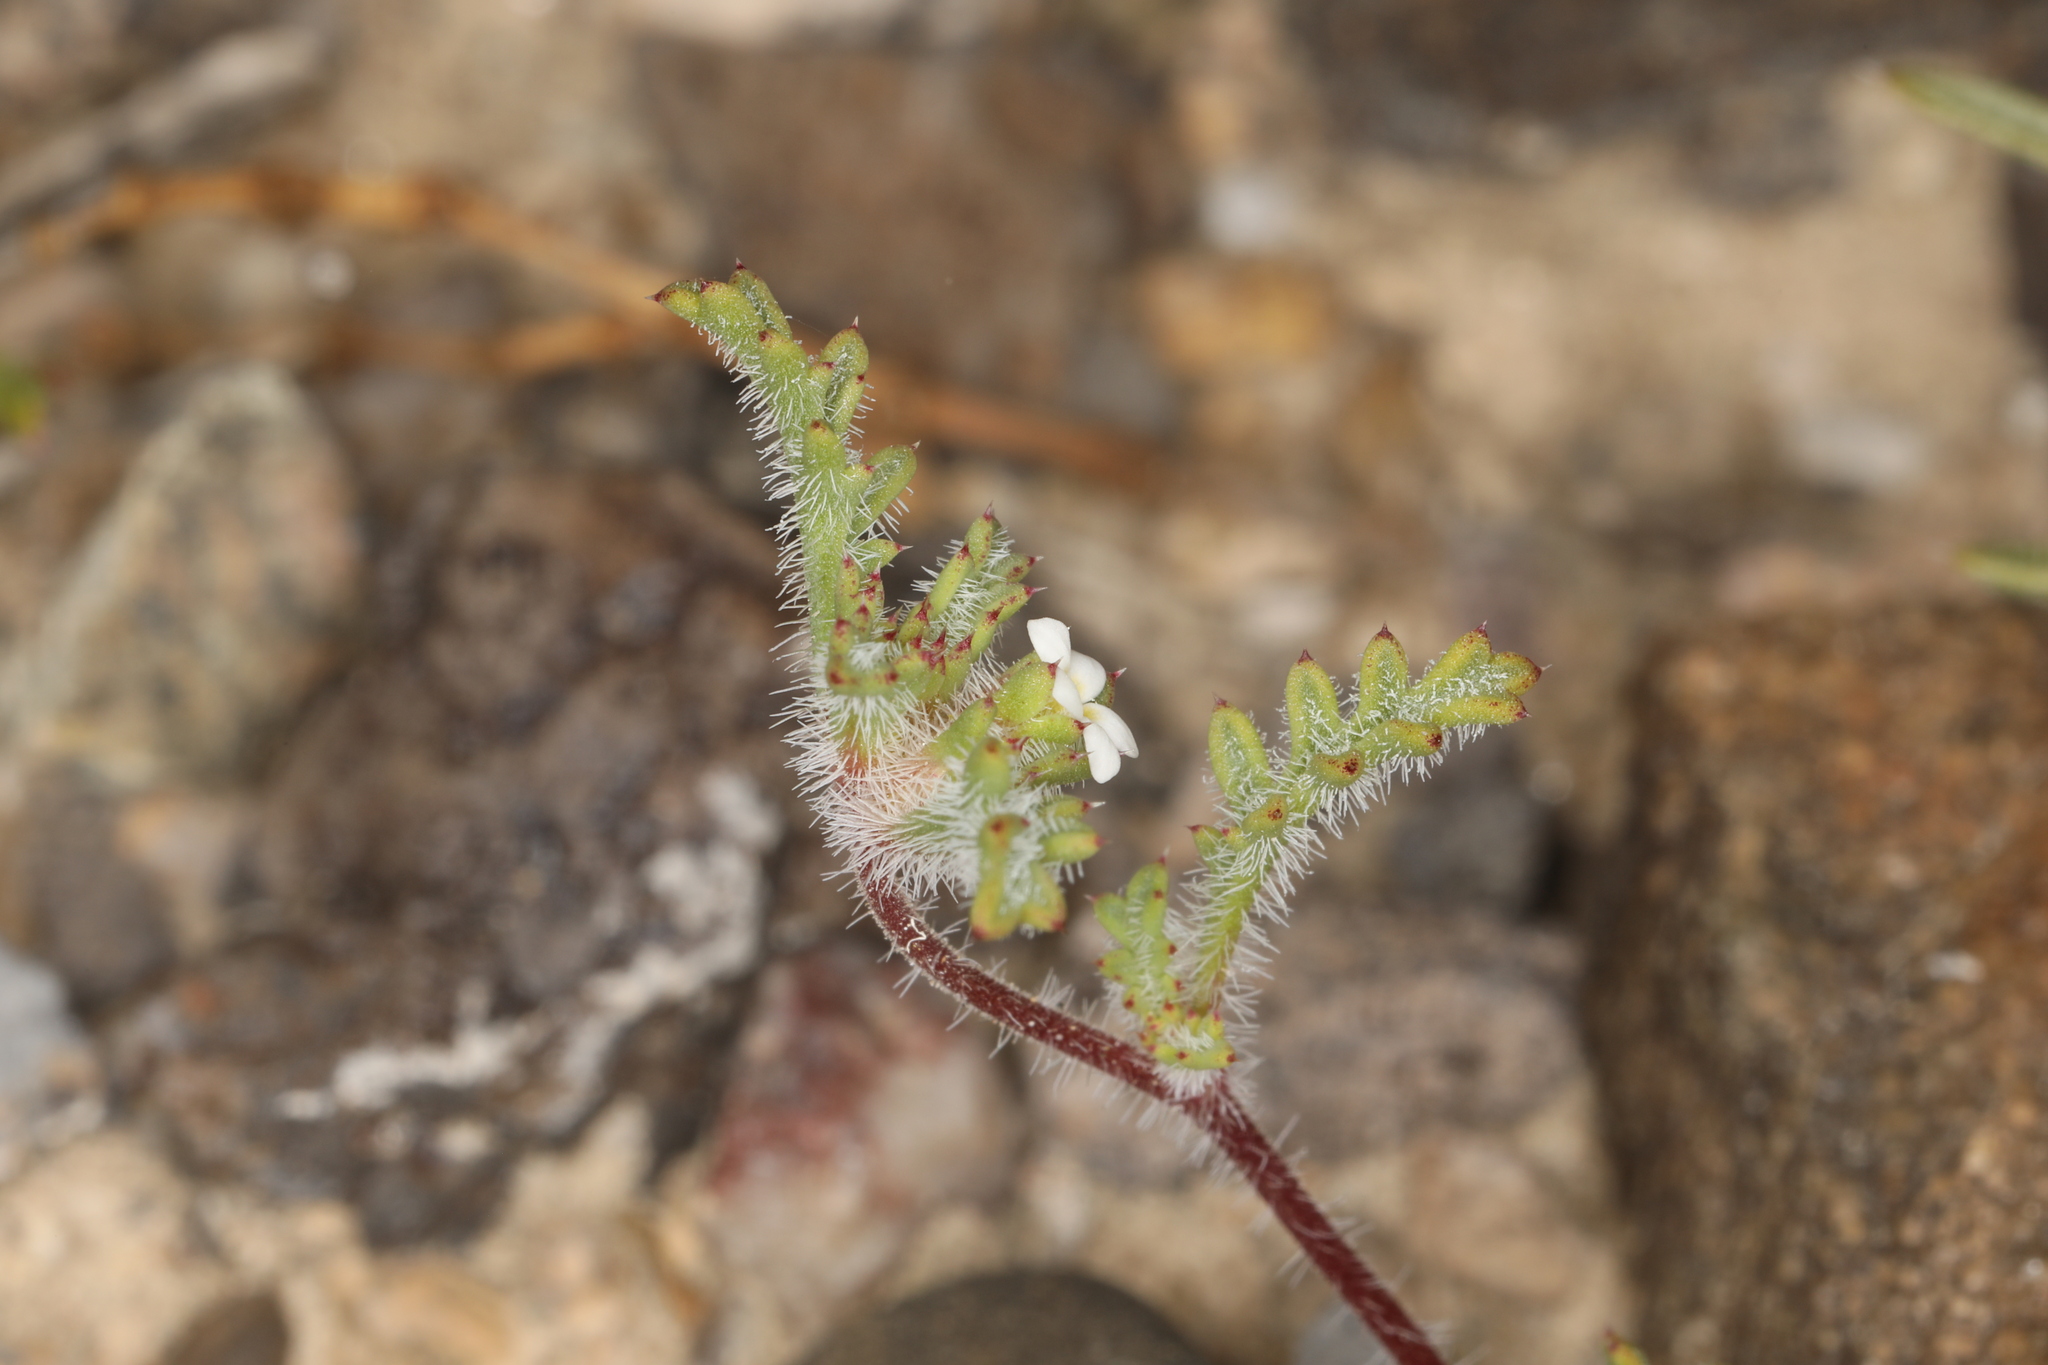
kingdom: Plantae
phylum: Tracheophyta
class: Magnoliopsida
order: Ericales
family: Polemoniaceae
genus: Ipomopsis
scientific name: Ipomopsis polycladon
